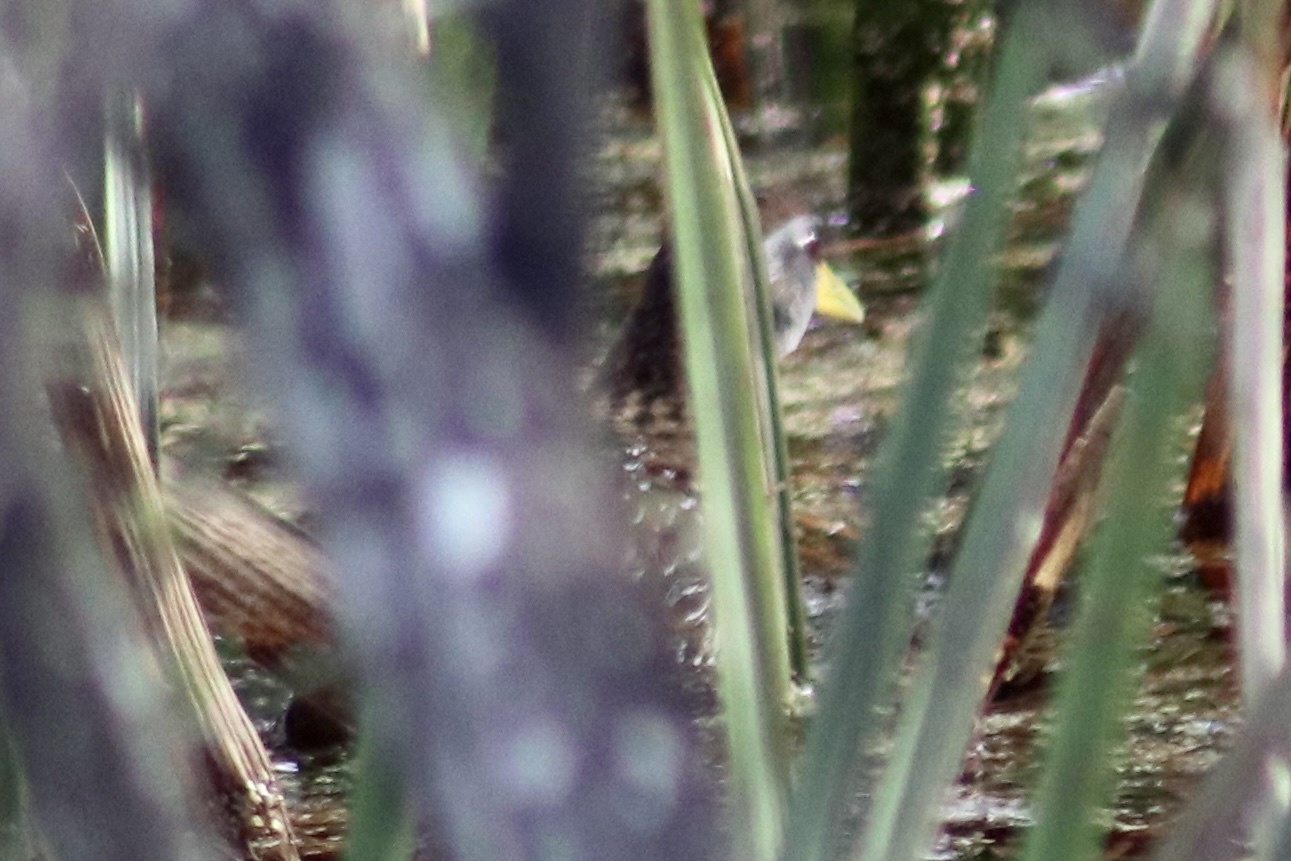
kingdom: Animalia
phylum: Chordata
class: Aves
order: Gruiformes
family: Rallidae
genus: Porzana
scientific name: Porzana carolina
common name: Sora
